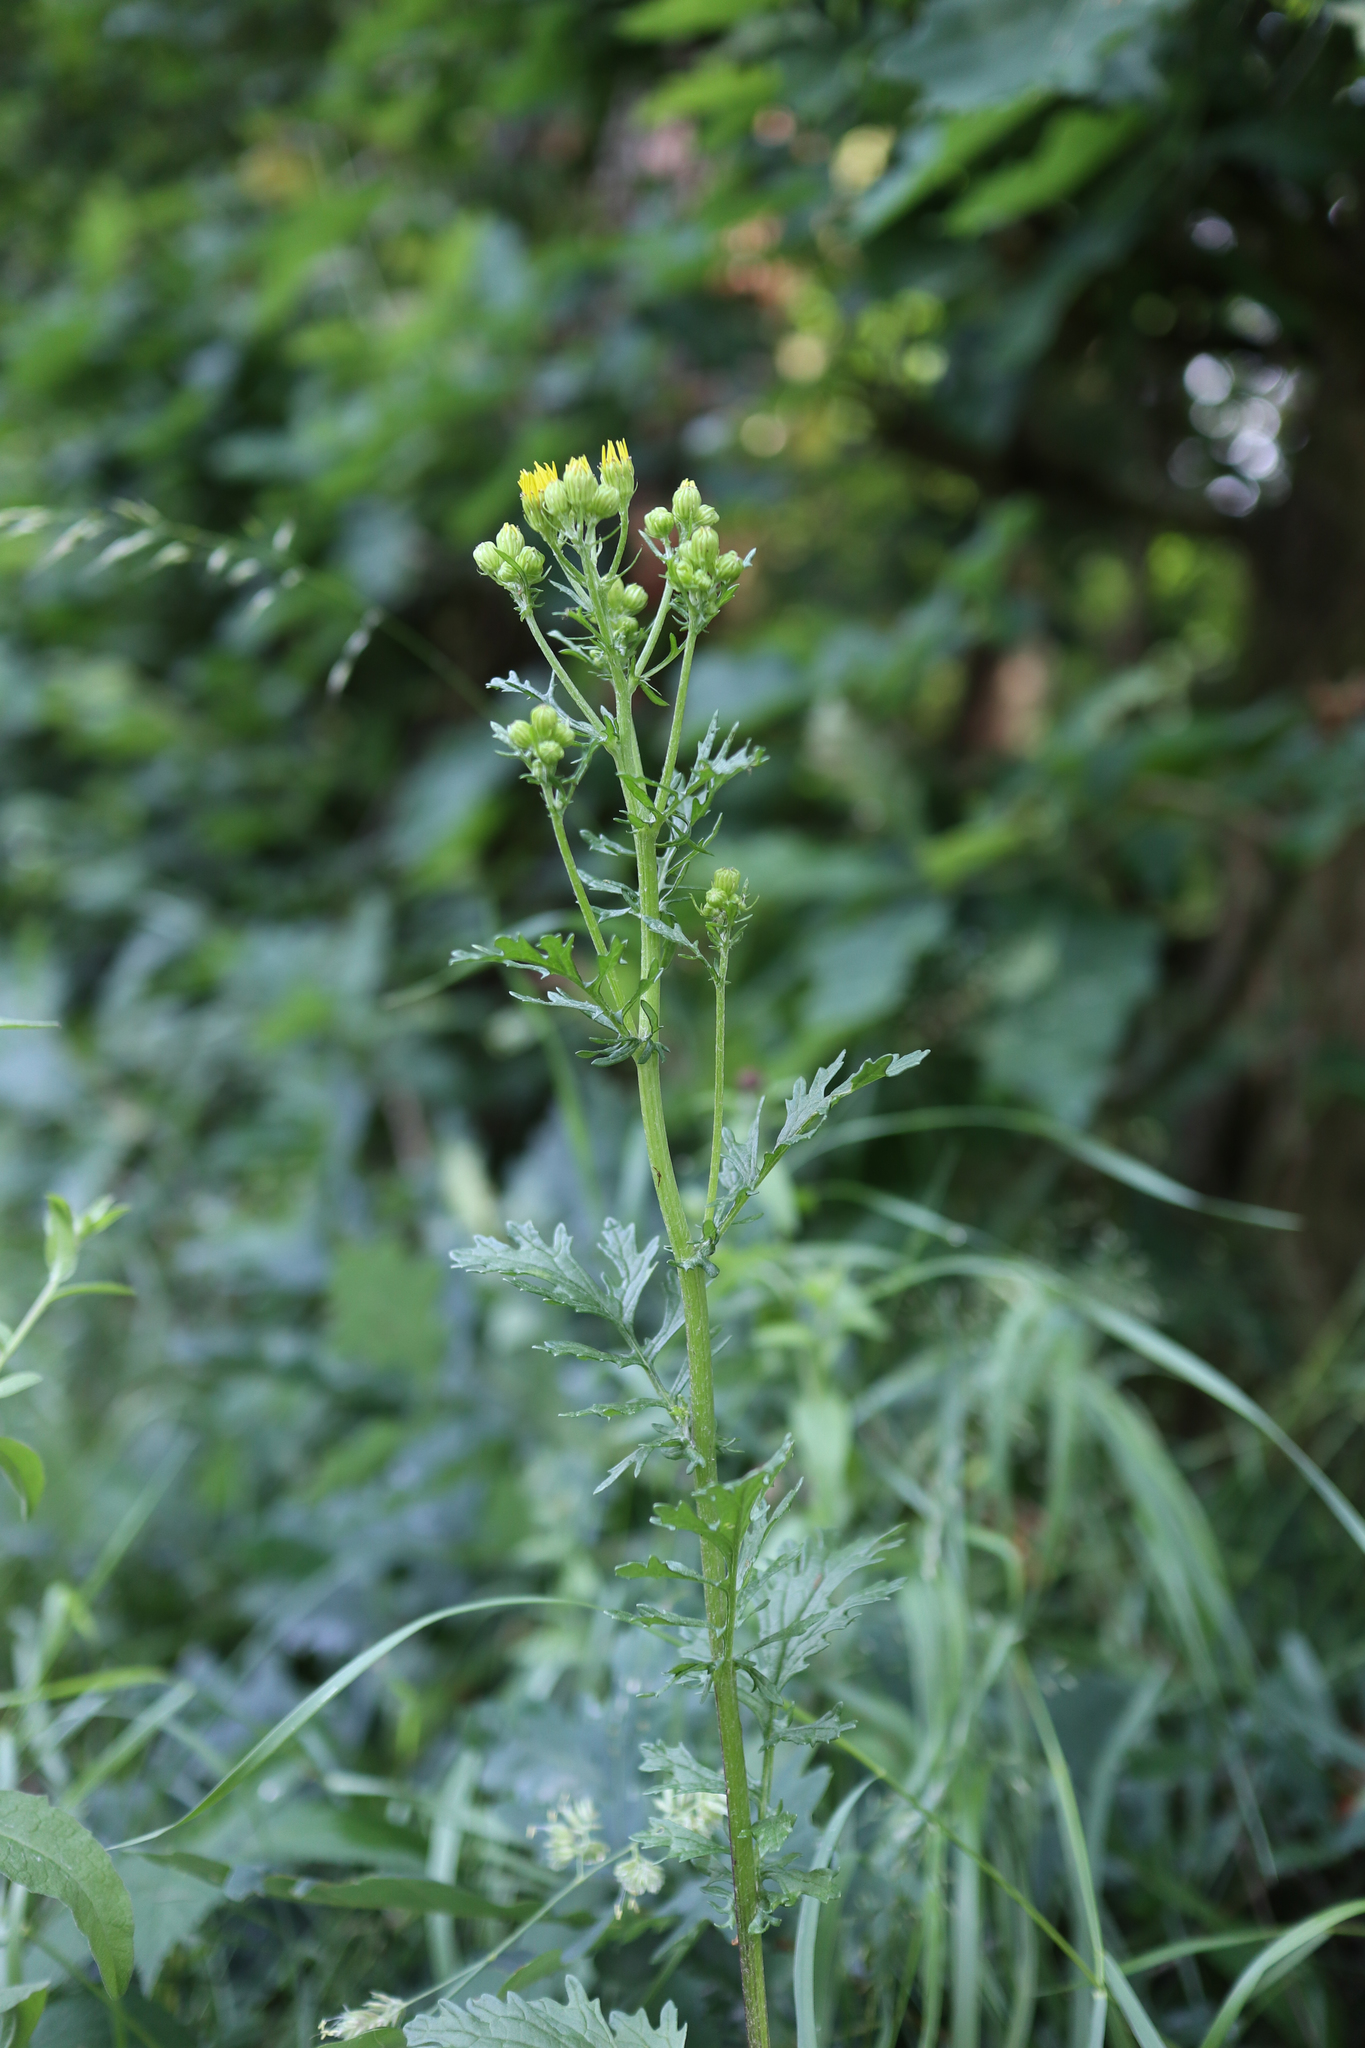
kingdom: Plantae
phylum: Tracheophyta
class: Magnoliopsida
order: Asterales
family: Asteraceae
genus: Jacobaea
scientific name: Jacobaea vulgaris
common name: Stinking willie
